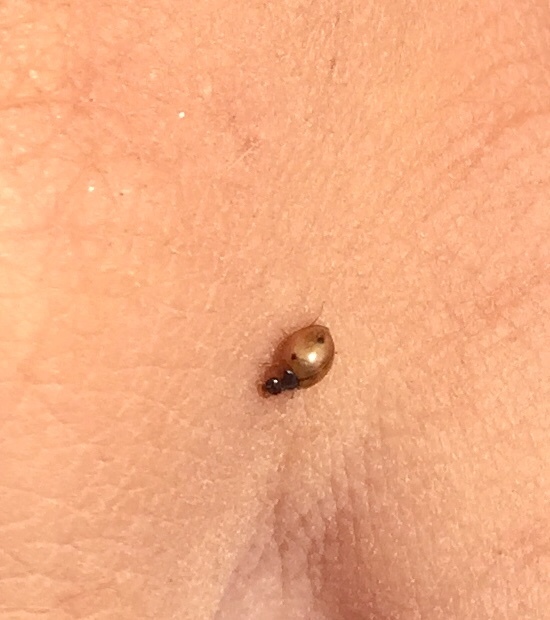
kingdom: Animalia
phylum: Arthropoda
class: Insecta
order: Coleoptera
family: Coccinellidae
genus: Exochomus
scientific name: Exochomus
